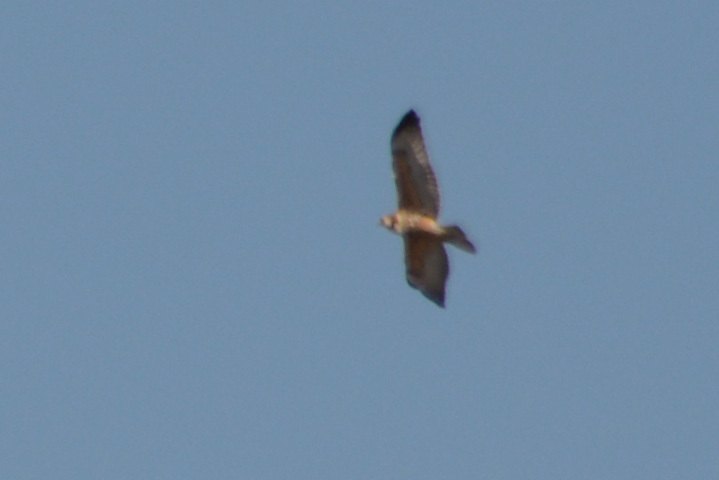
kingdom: Animalia
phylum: Chordata
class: Aves
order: Accipitriformes
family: Accipitridae
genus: Buteo
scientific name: Buteo polyosoma
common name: Variable hawk
